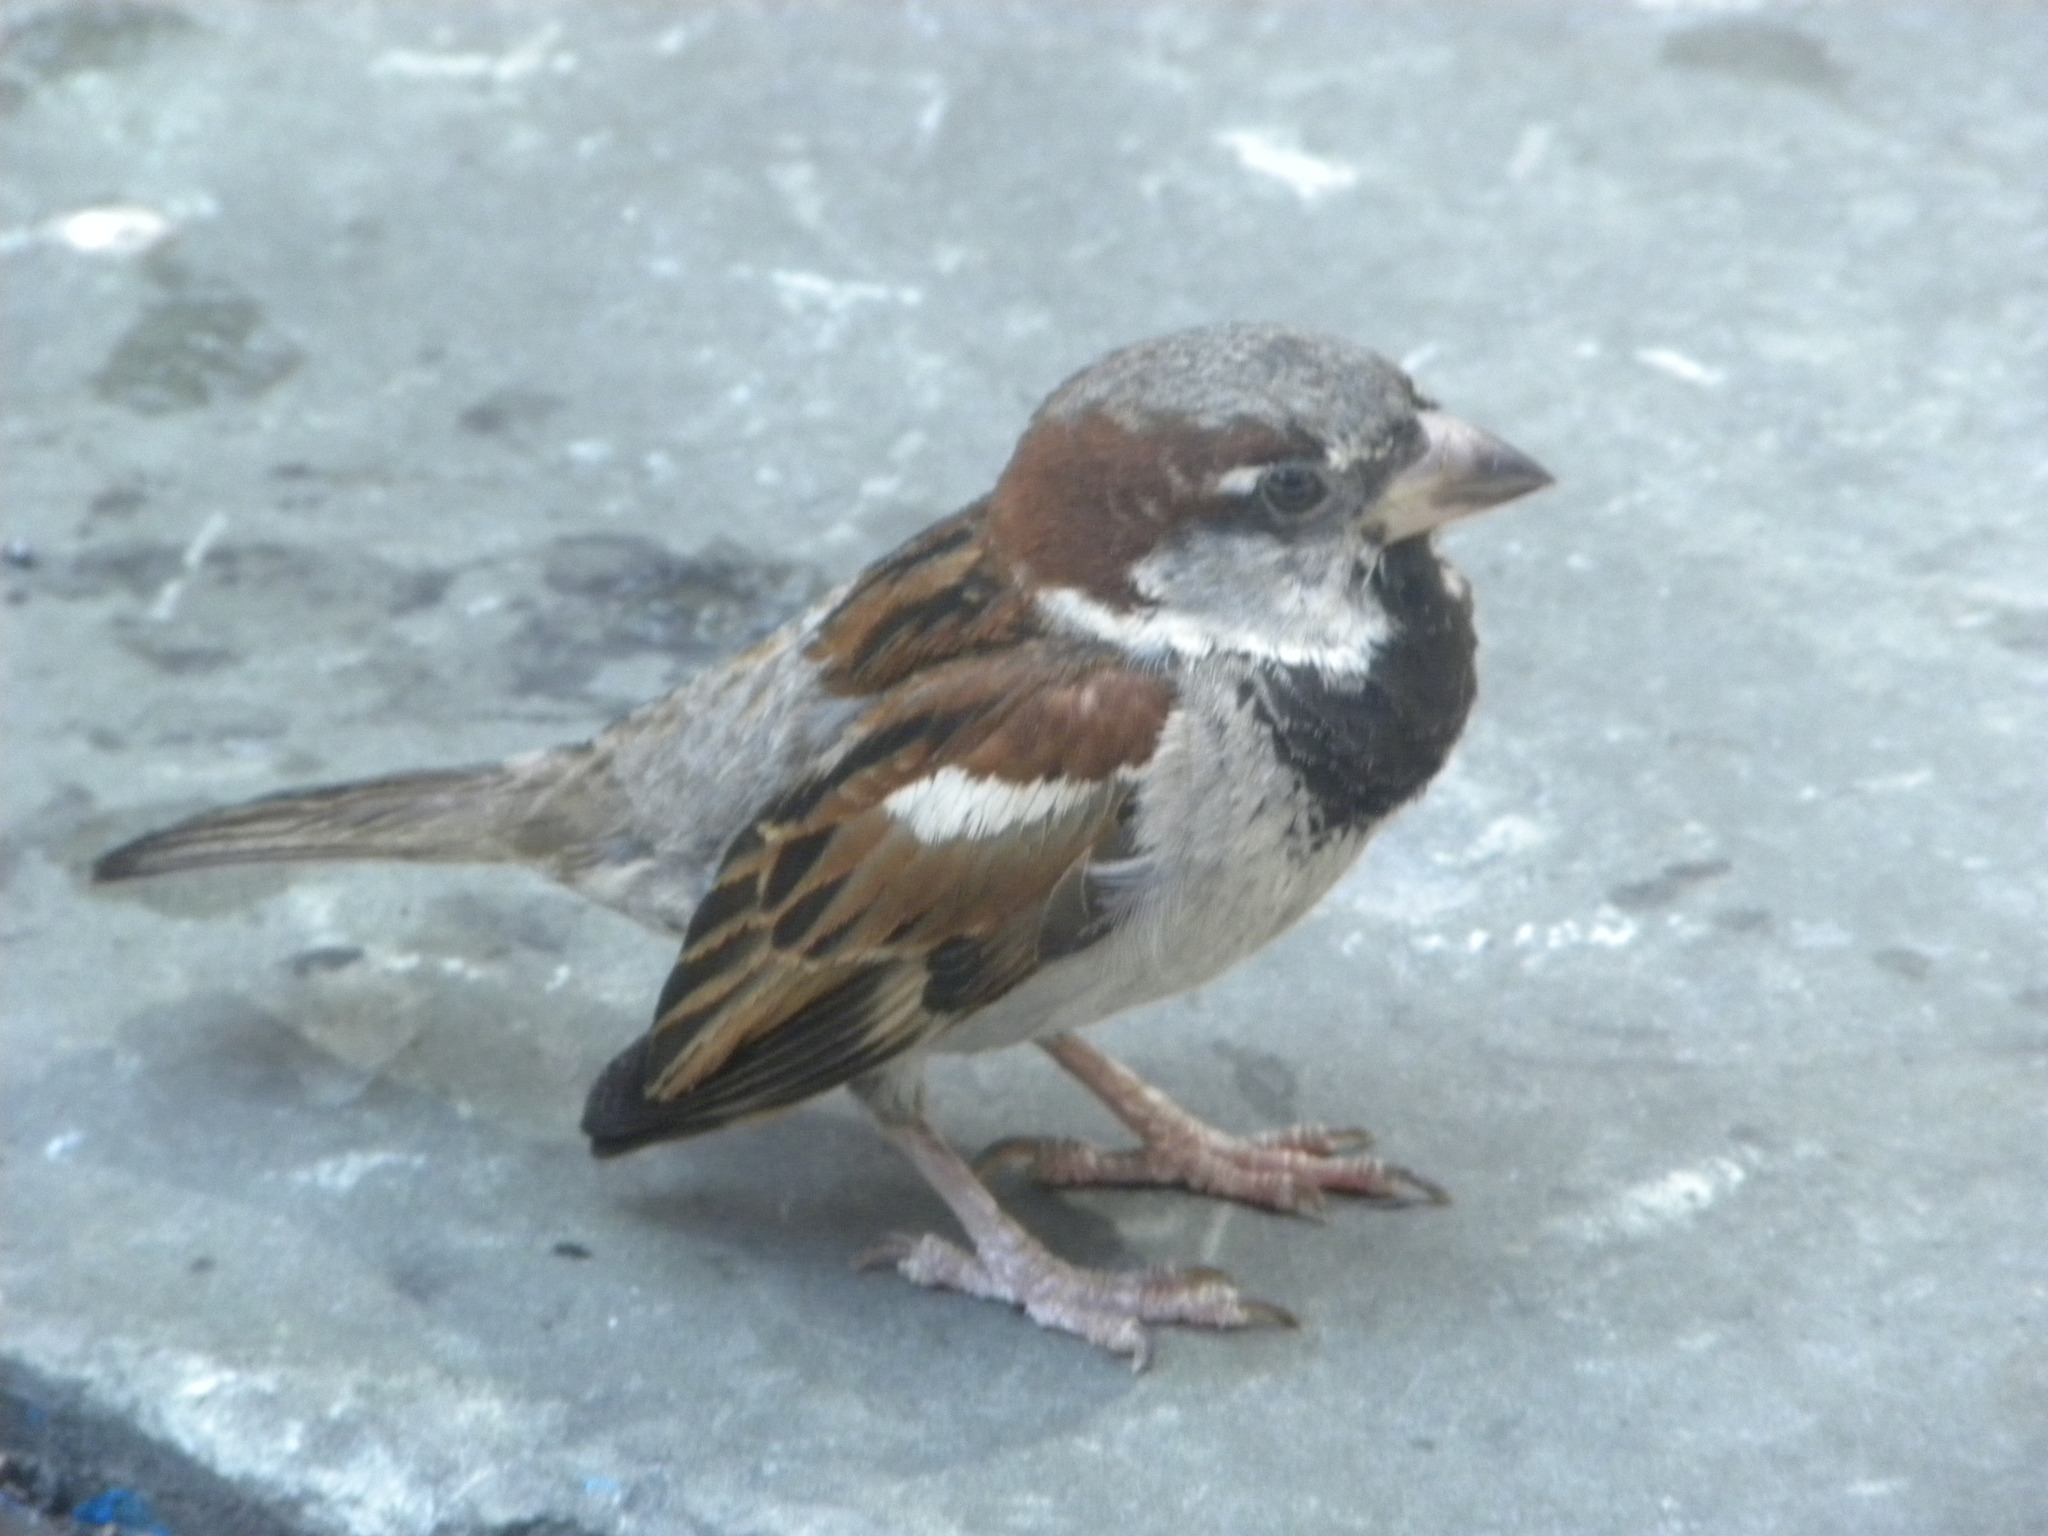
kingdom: Animalia
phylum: Chordata
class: Aves
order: Passeriformes
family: Passeridae
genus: Passer
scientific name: Passer domesticus
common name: House sparrow
